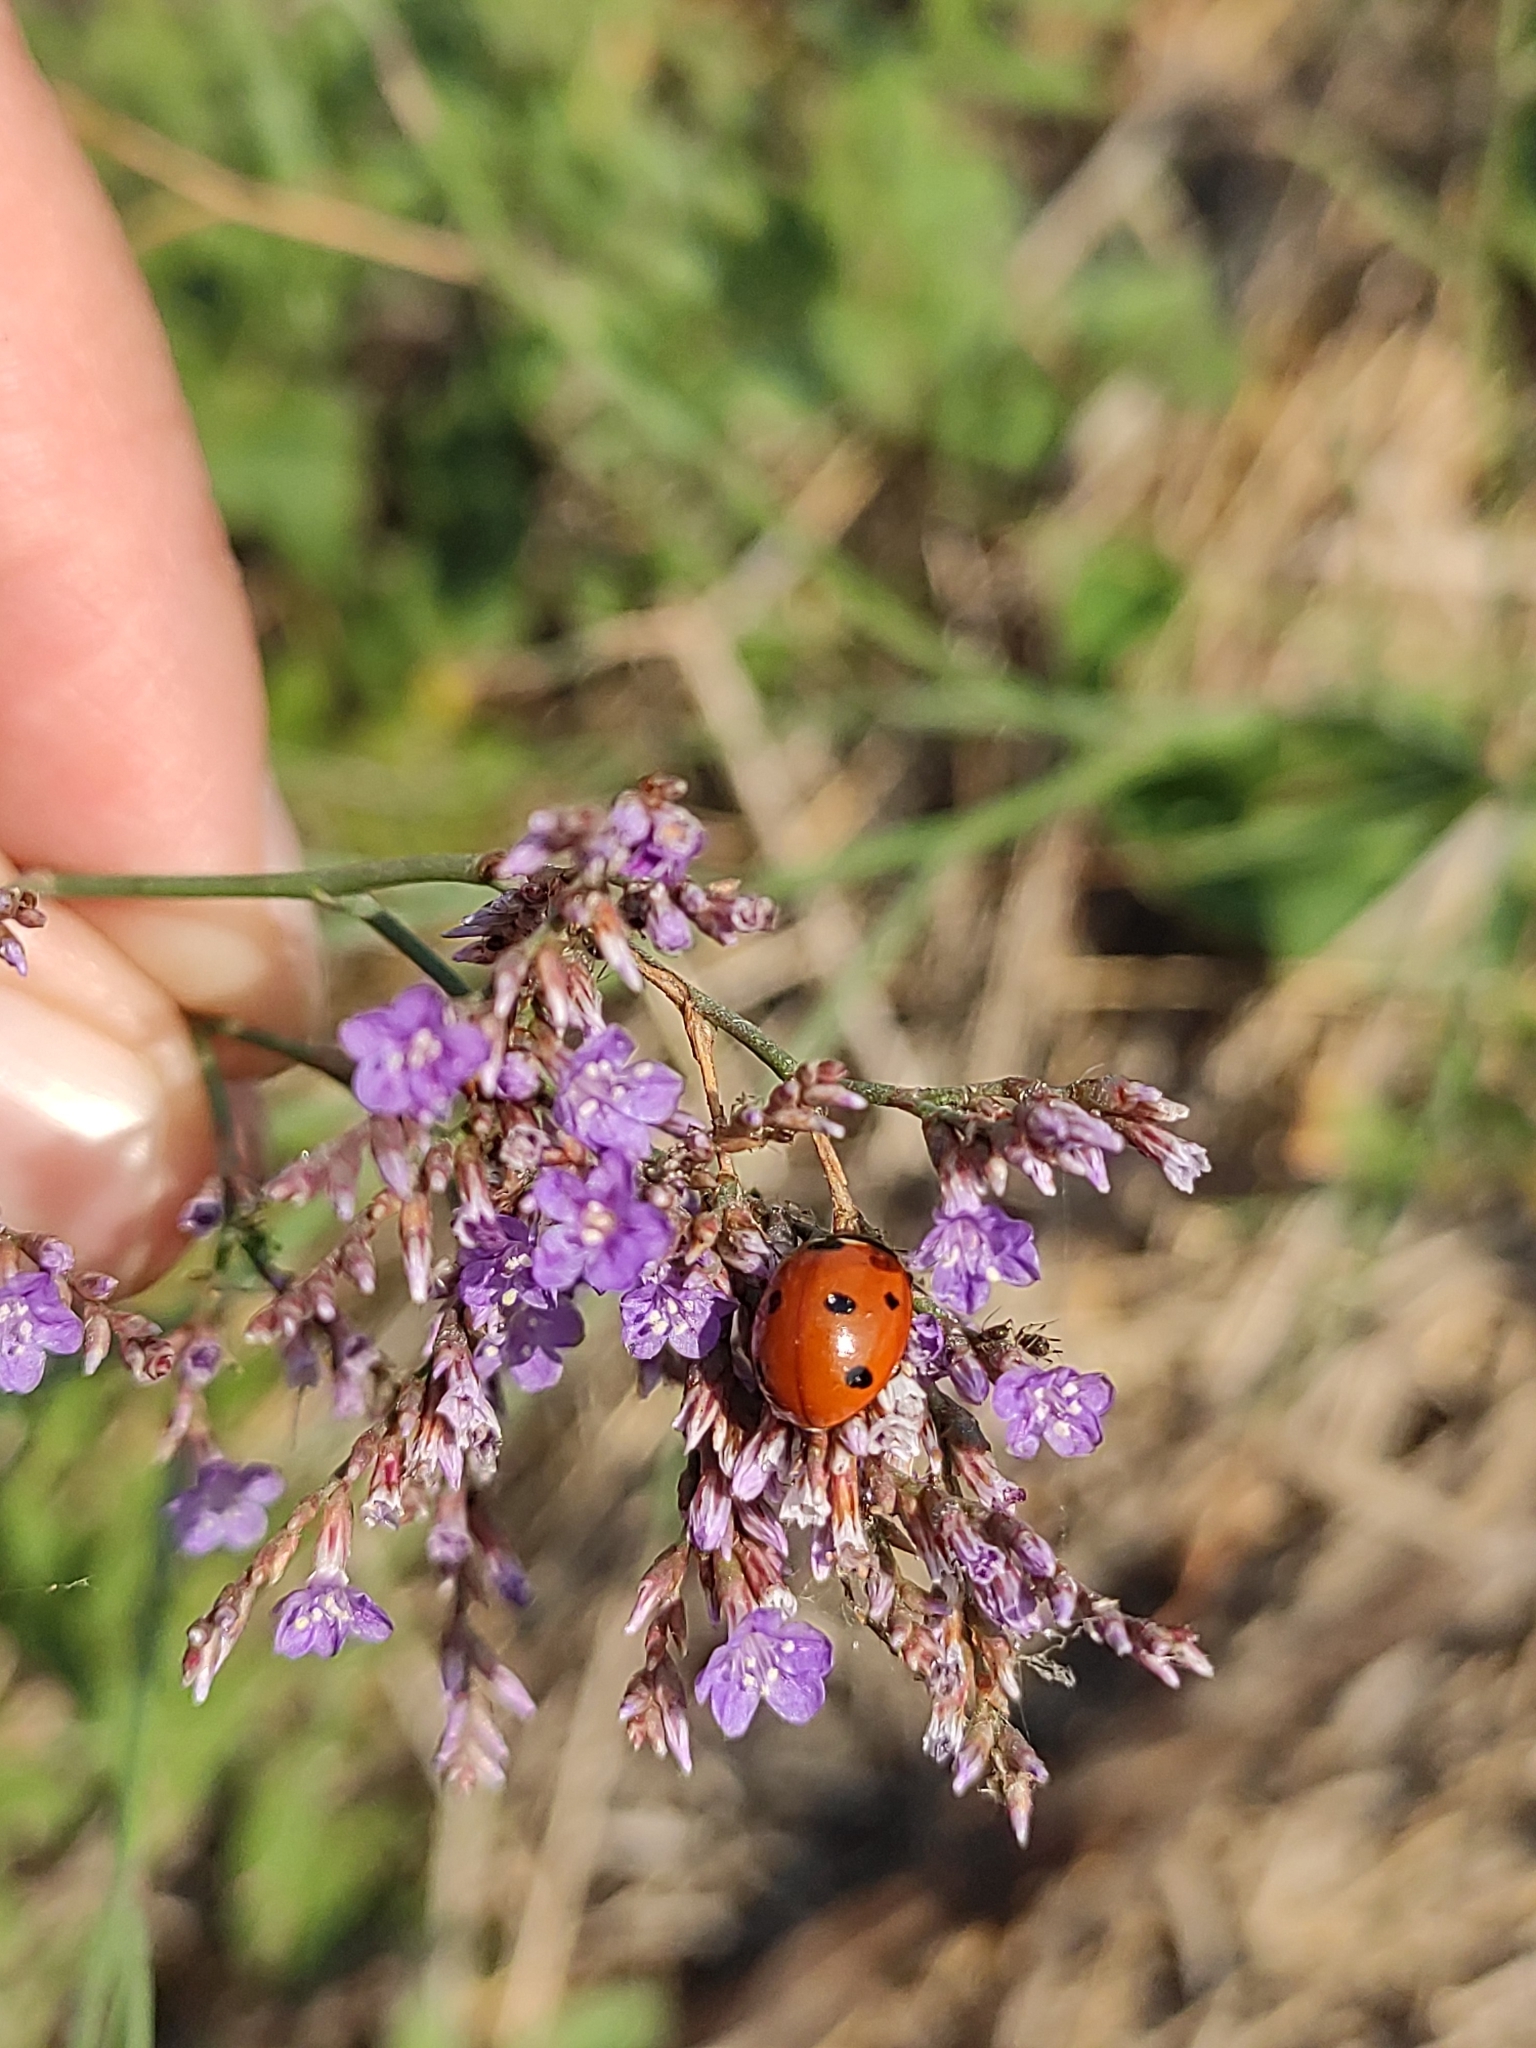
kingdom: Animalia
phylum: Arthropoda
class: Insecta
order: Coleoptera
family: Coccinellidae
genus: Coccinella
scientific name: Coccinella septempunctata
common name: Sevenspotted lady beetle
